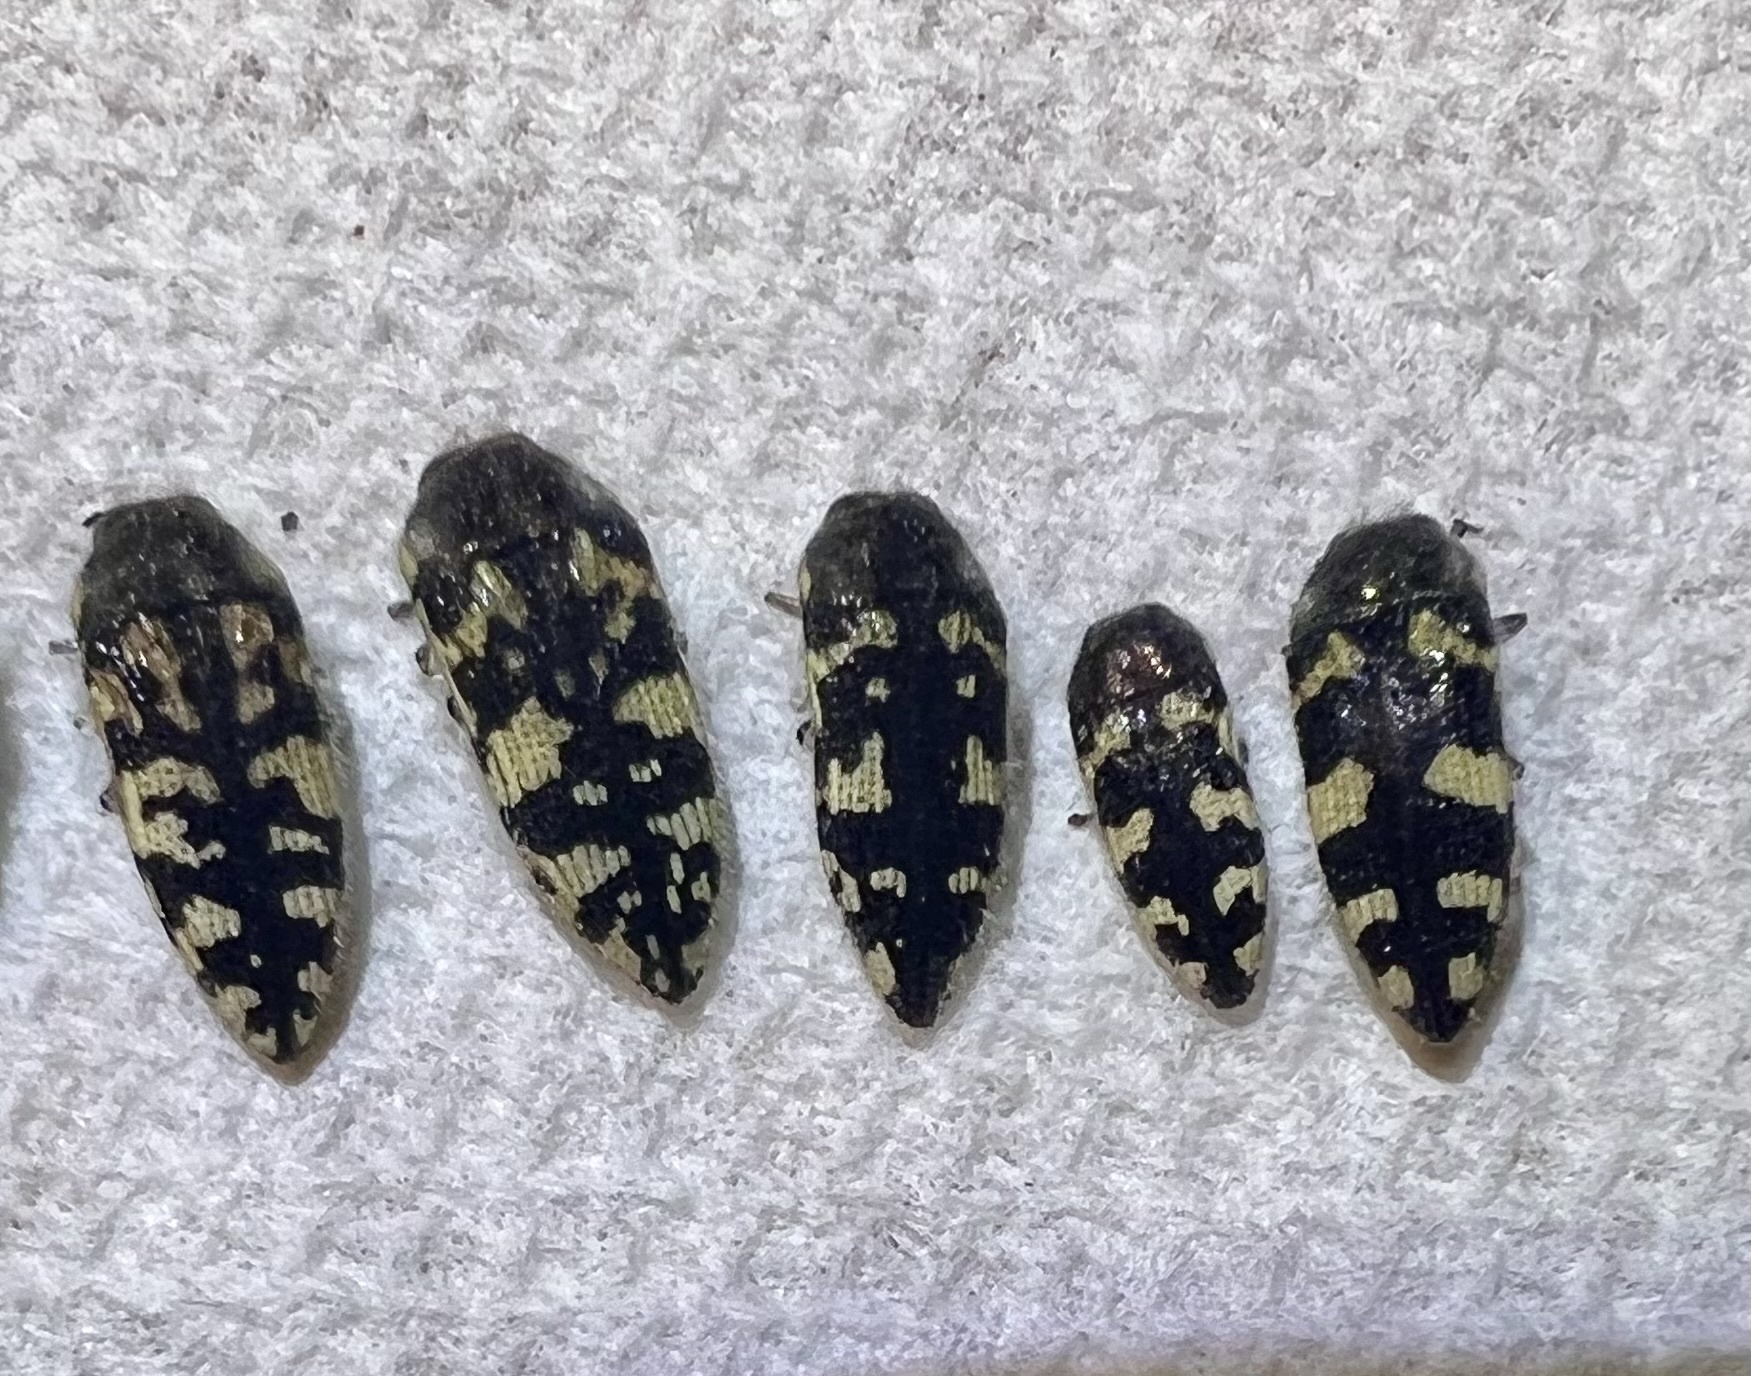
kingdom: Animalia
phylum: Arthropoda
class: Insecta
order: Coleoptera
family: Buprestidae
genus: Acmaeodera
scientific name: Acmaeodera tuta
